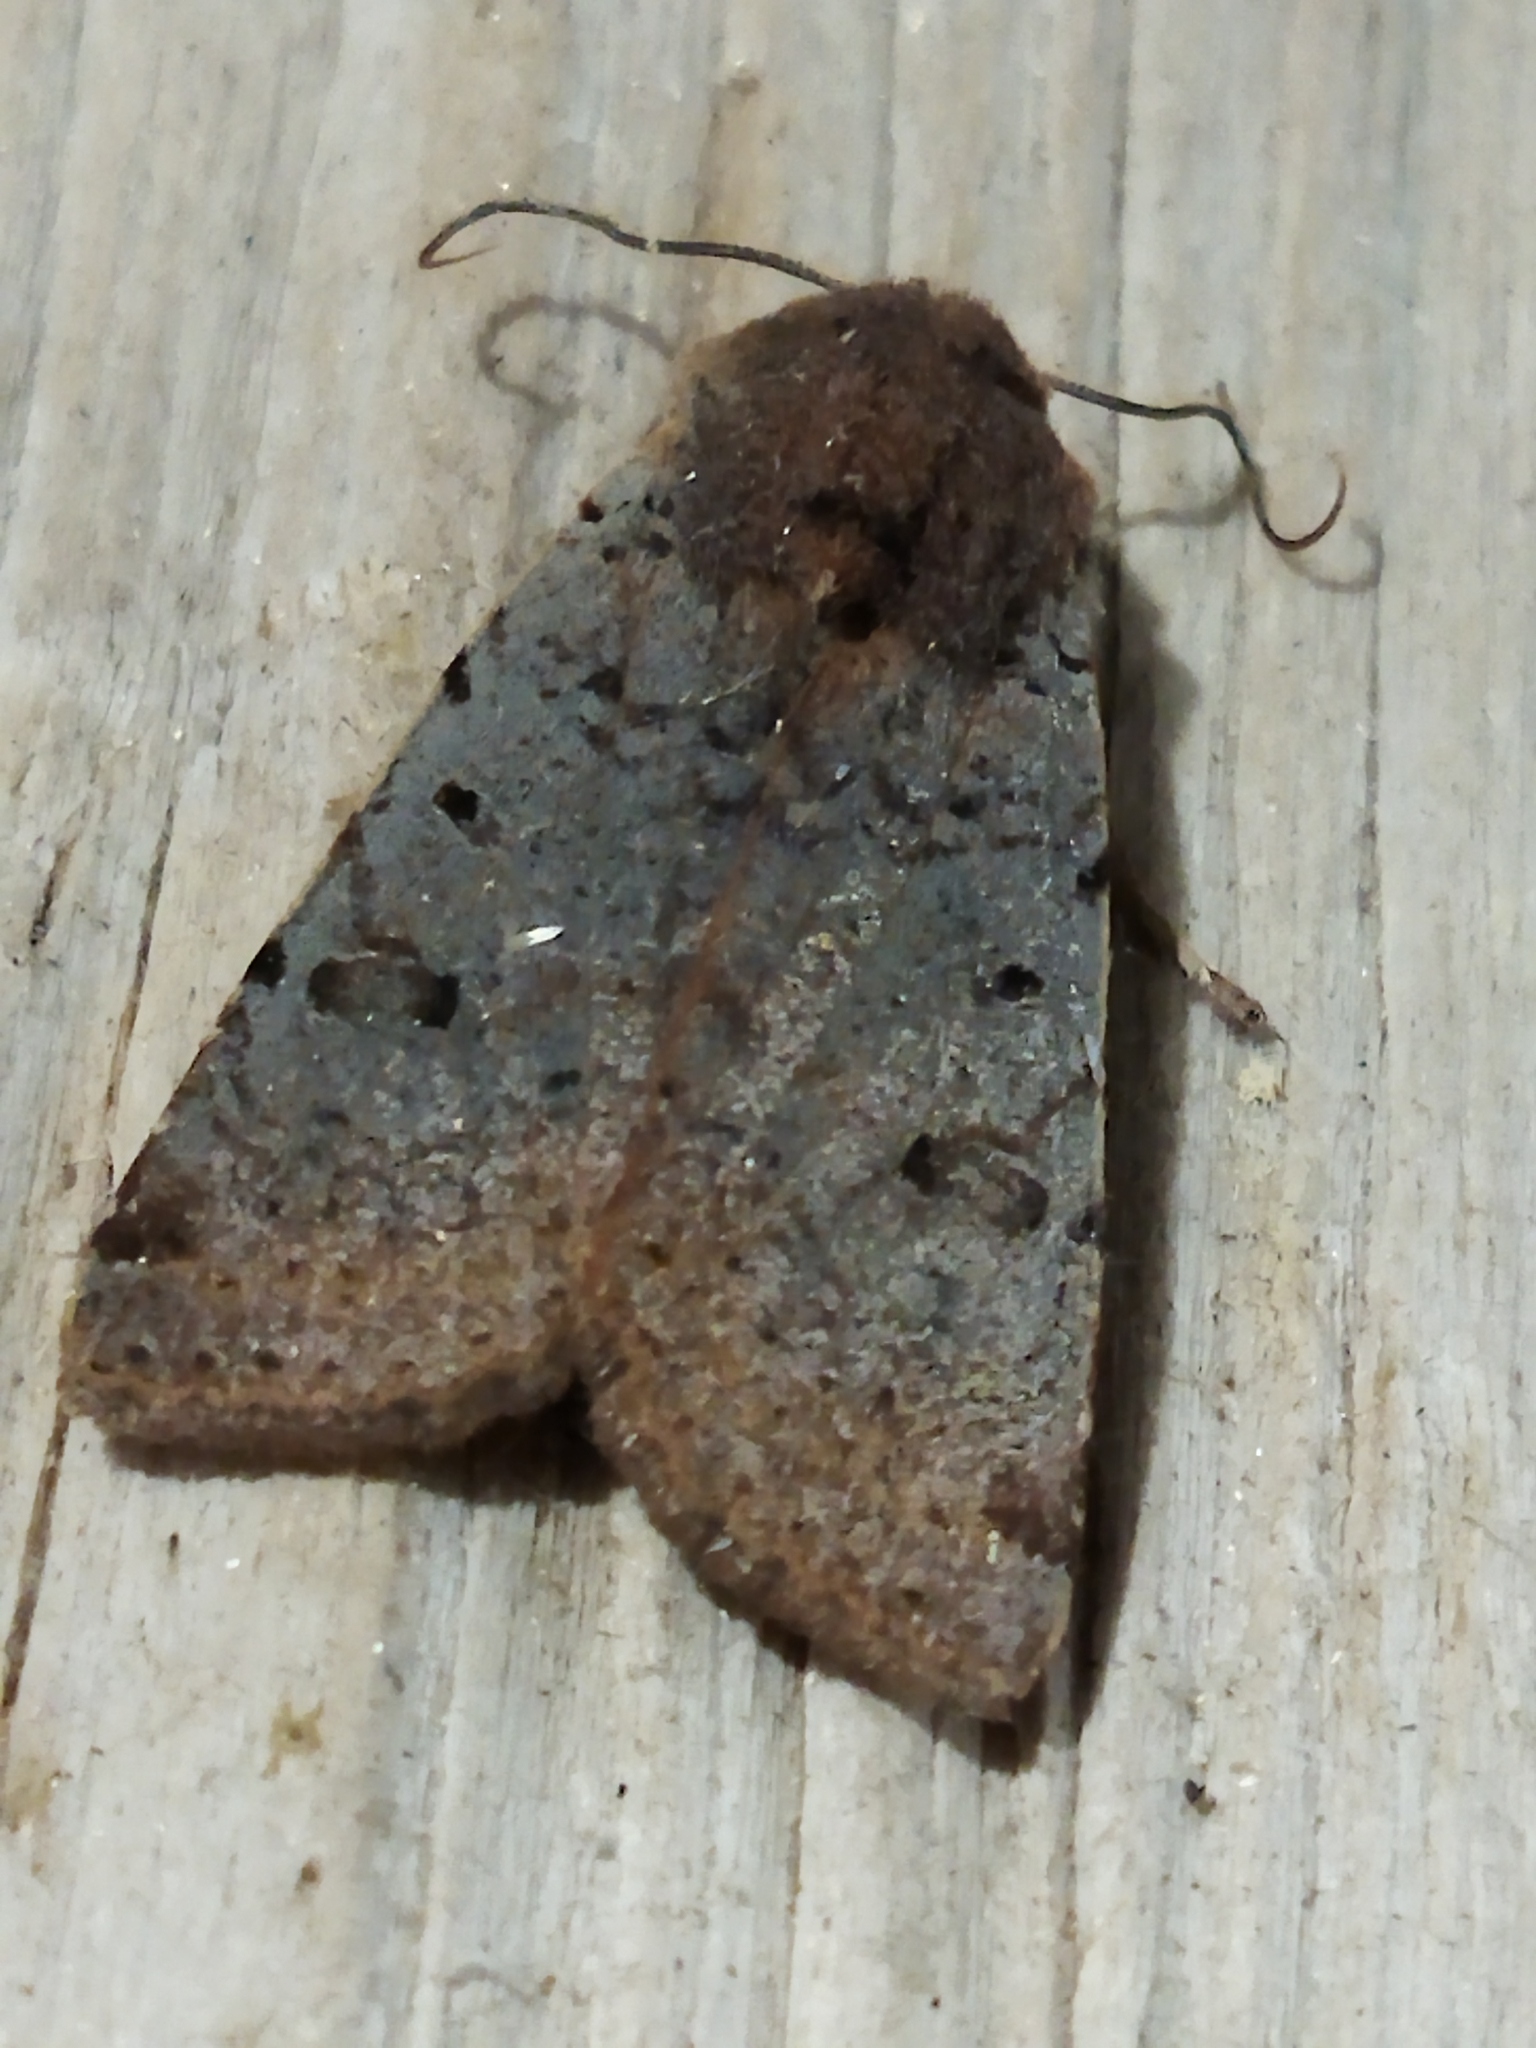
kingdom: Animalia
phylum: Arthropoda
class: Insecta
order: Lepidoptera
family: Noctuidae
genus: Agrochola
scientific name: Agrochola lychnidis
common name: Beaded chestnut
